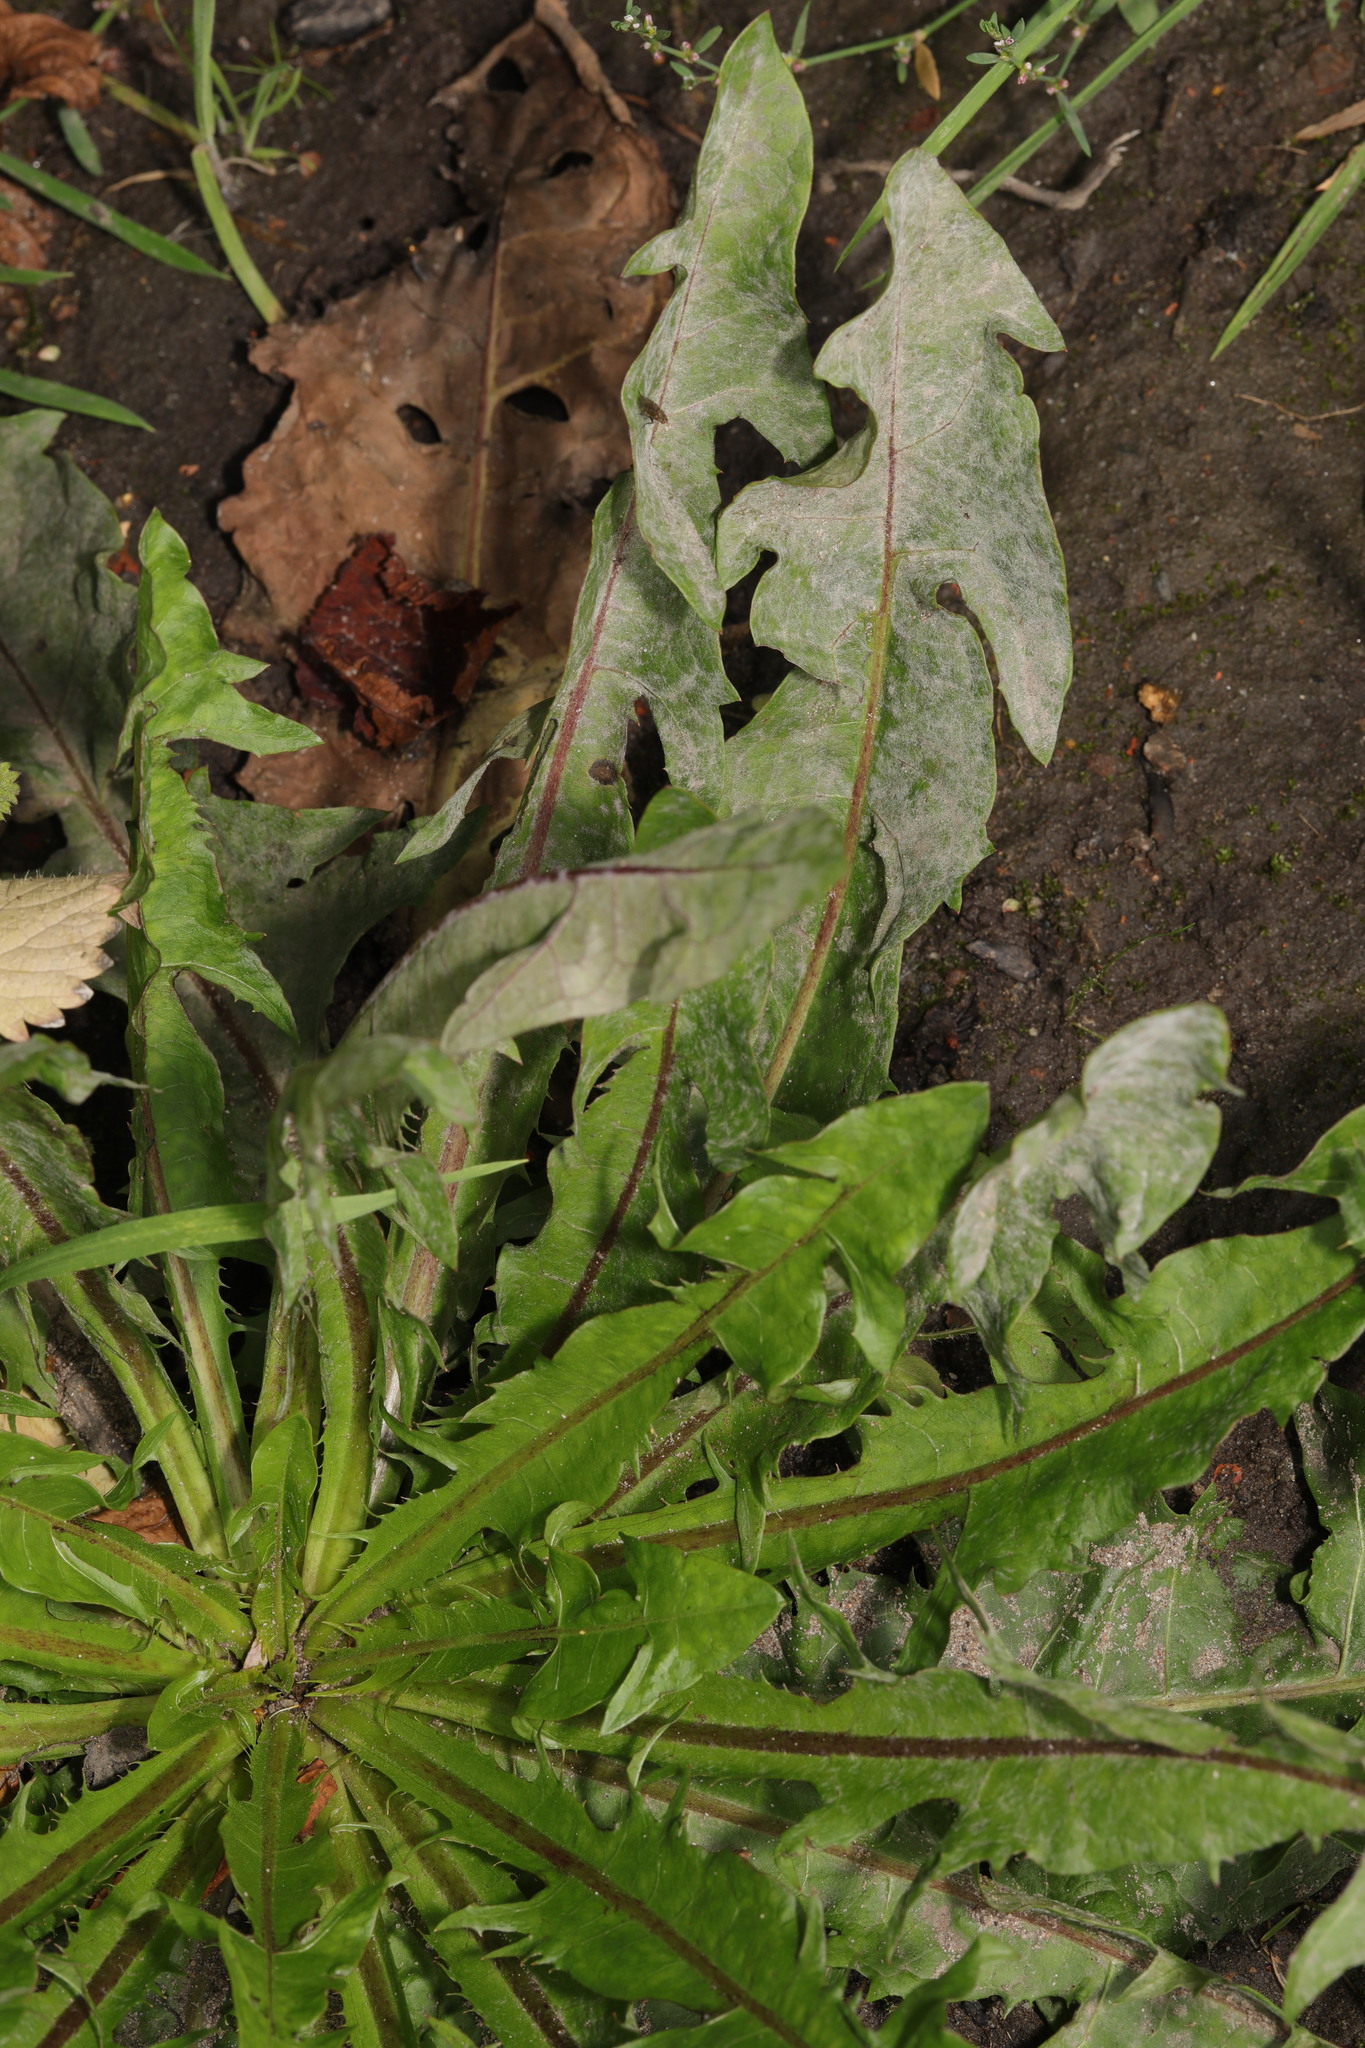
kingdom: Plantae
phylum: Tracheophyta
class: Magnoliopsida
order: Asterales
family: Asteraceae
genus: Taraxacum
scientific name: Taraxacum officinale
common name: Common dandelion
